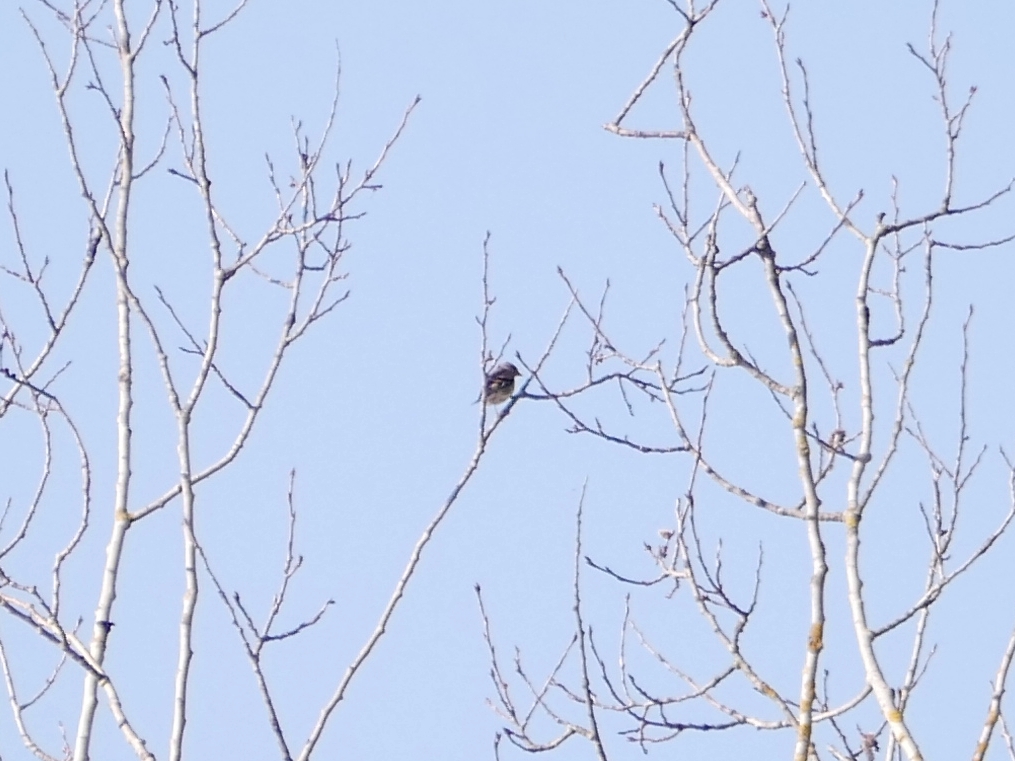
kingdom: Animalia
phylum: Chordata
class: Aves
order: Passeriformes
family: Fringillidae
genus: Fringilla
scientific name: Fringilla coelebs
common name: Common chaffinch
